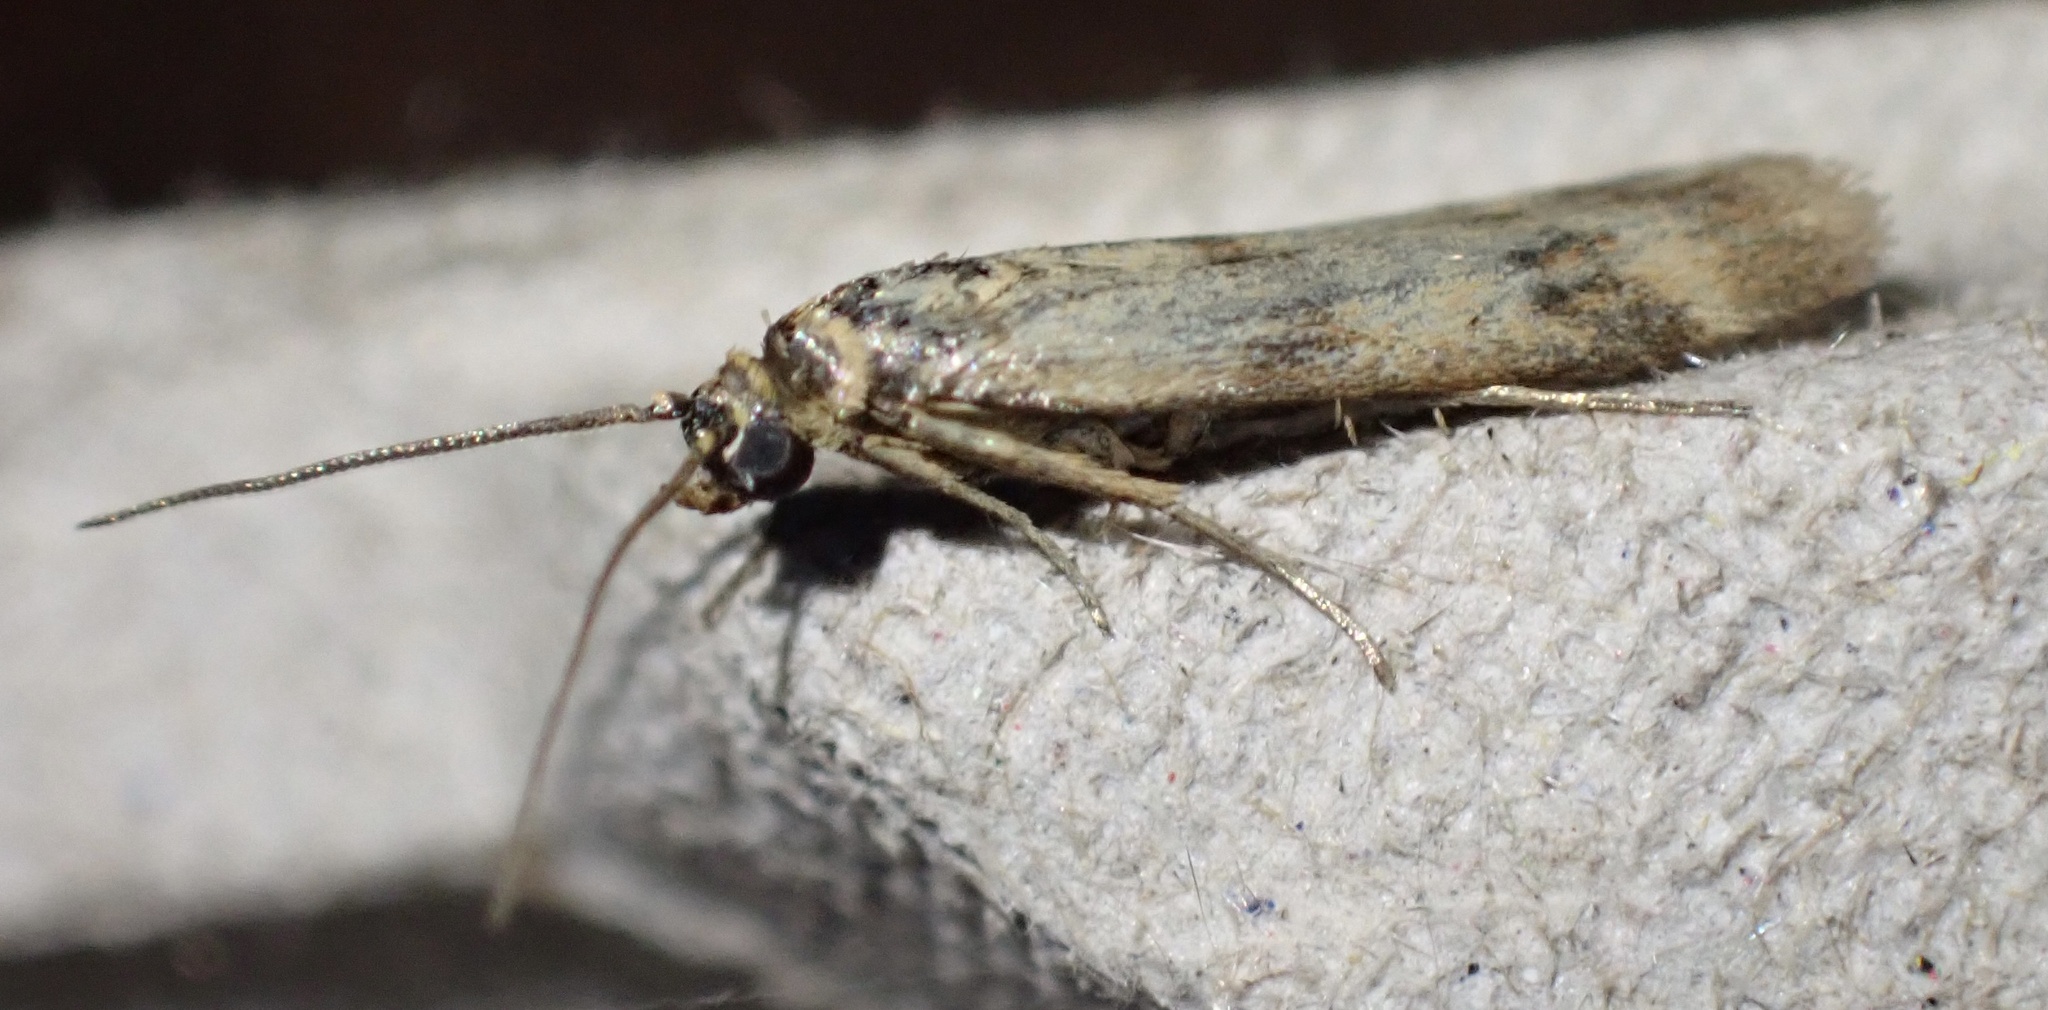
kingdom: Animalia
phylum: Arthropoda
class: Insecta
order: Lepidoptera
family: Pyralidae
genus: Homoeosoma
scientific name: Homoeosoma sinuella
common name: Twin-barred knot-horn
